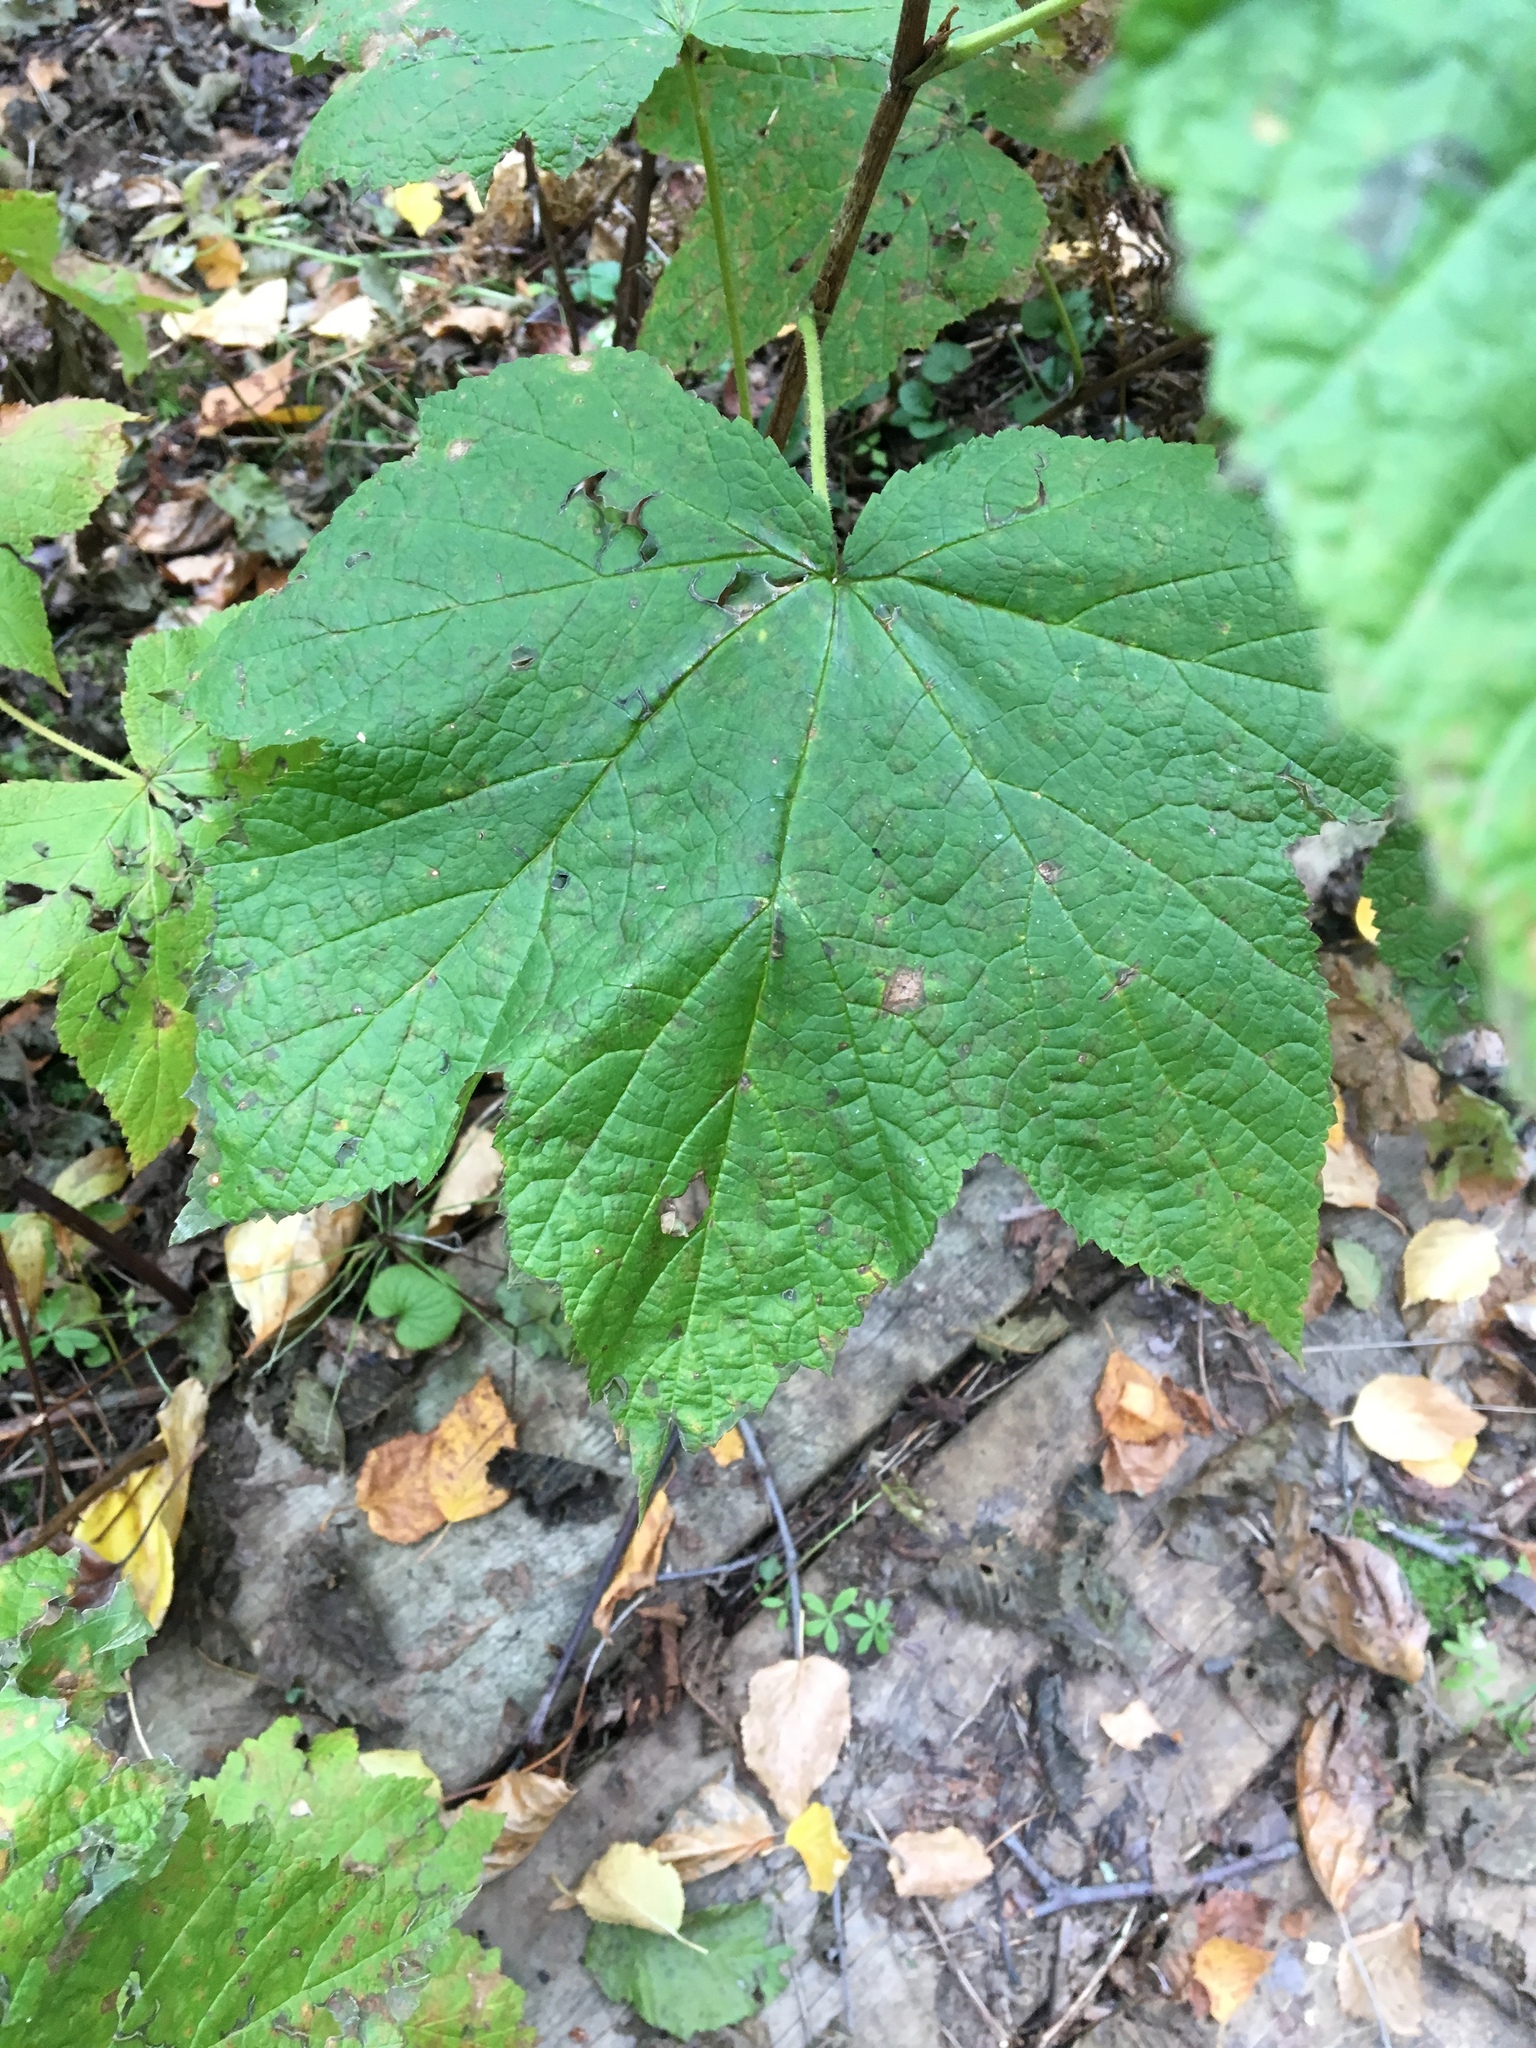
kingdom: Plantae
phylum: Tracheophyta
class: Magnoliopsida
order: Rosales
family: Rosaceae
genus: Rubus
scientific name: Rubus parviflorus
